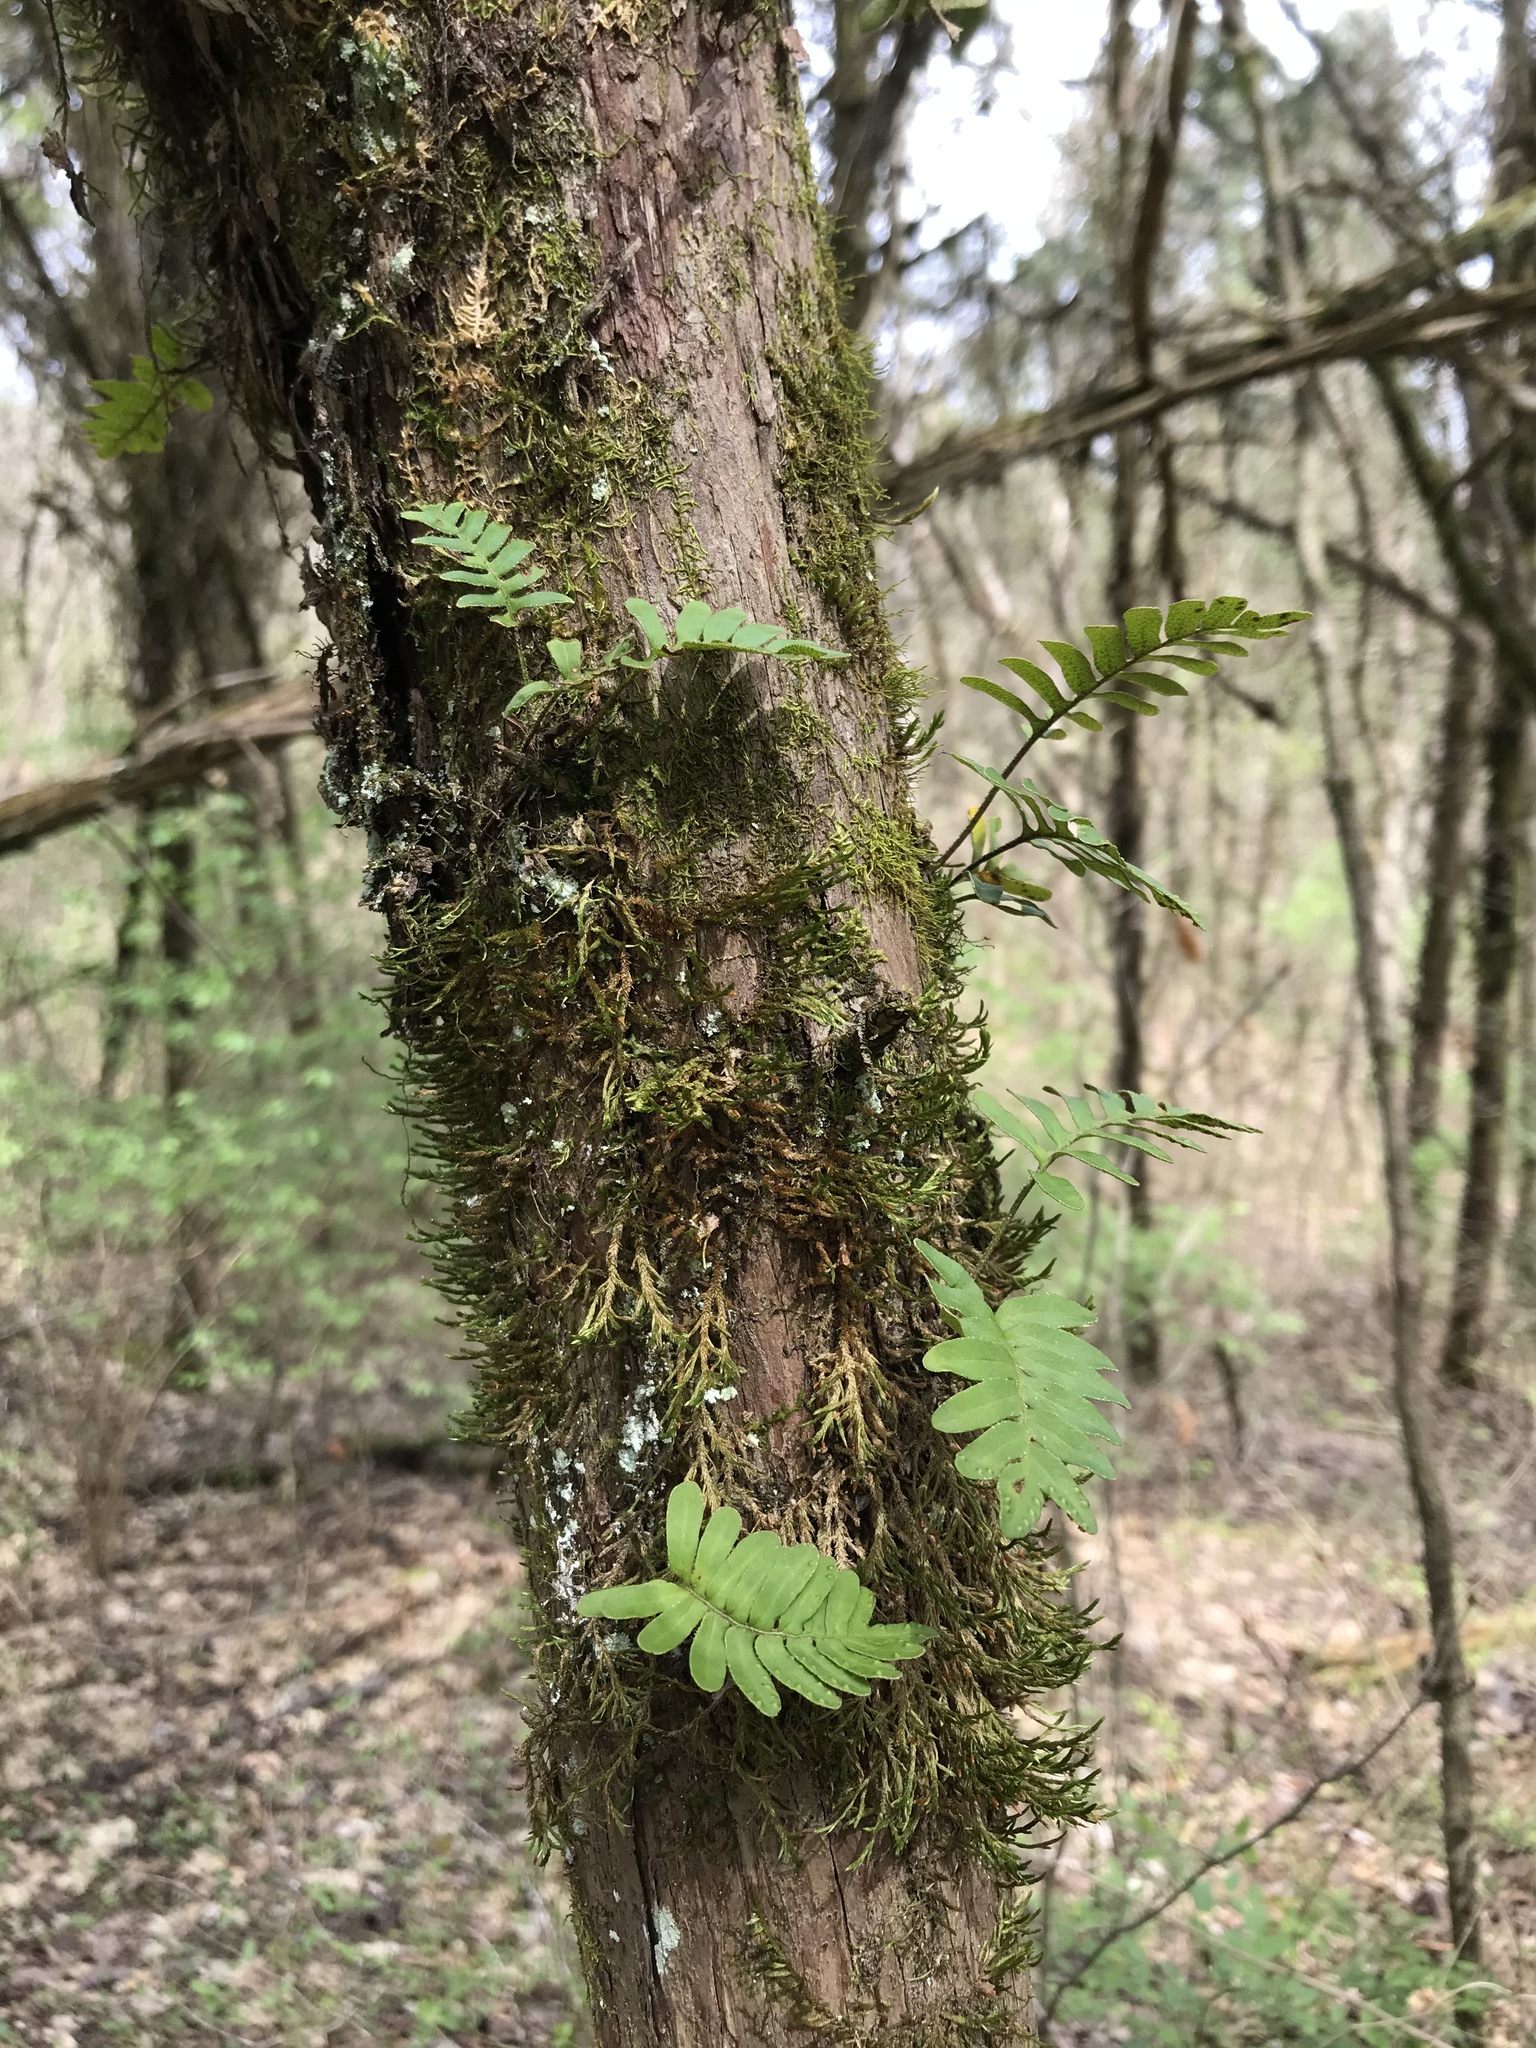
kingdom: Plantae
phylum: Tracheophyta
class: Polypodiopsida
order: Polypodiales
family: Polypodiaceae
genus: Pleopeltis
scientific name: Pleopeltis michauxiana
